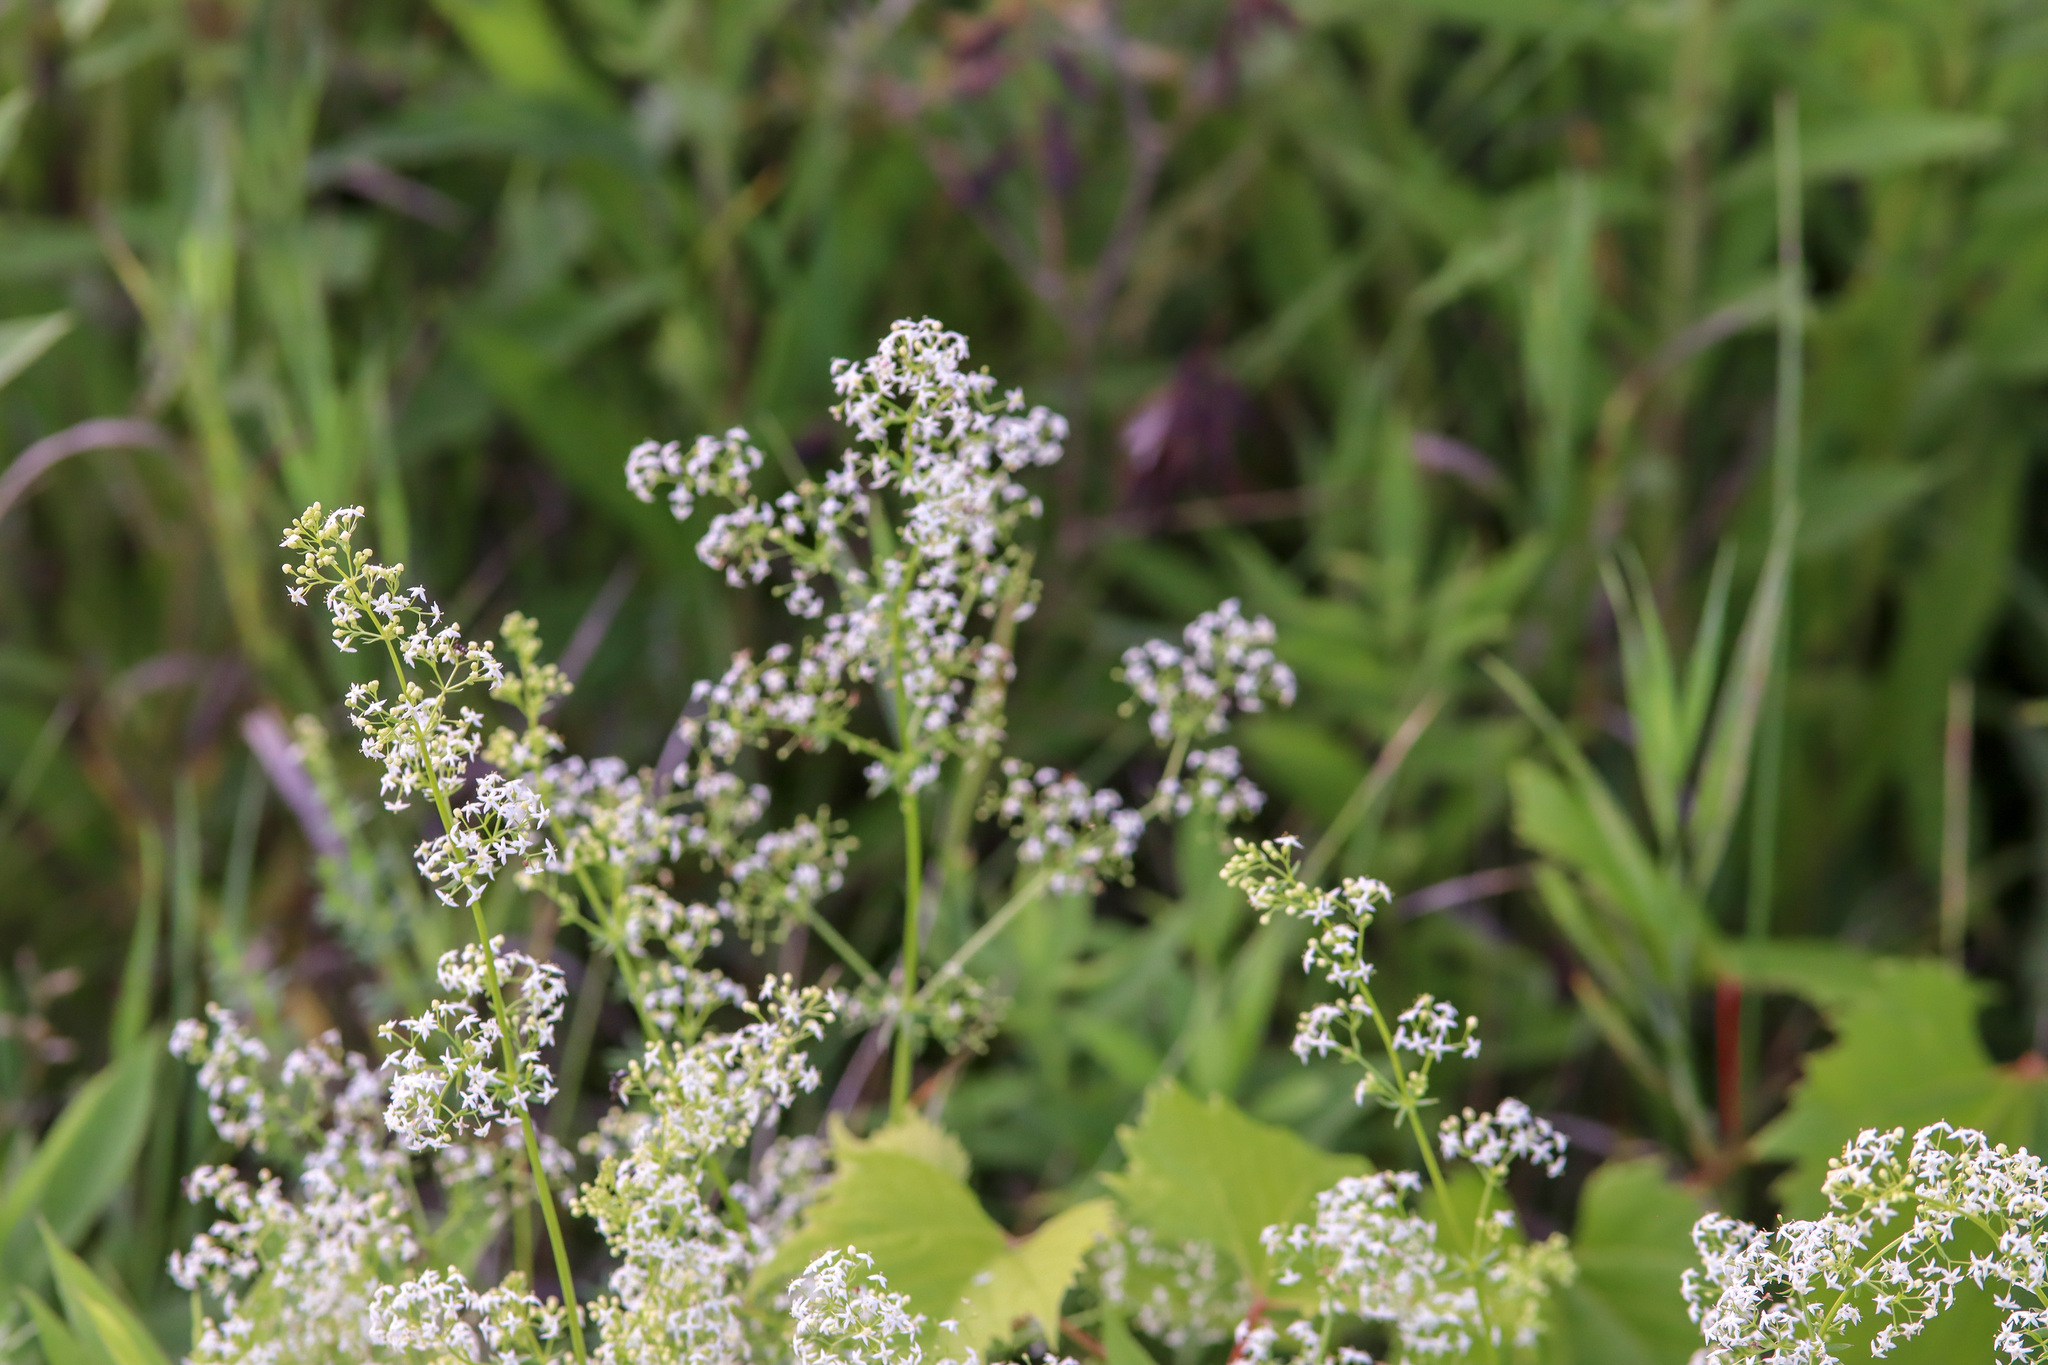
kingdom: Plantae
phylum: Tracheophyta
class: Magnoliopsida
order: Gentianales
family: Rubiaceae
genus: Galium
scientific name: Galium mollugo
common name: Hedge bedstraw
